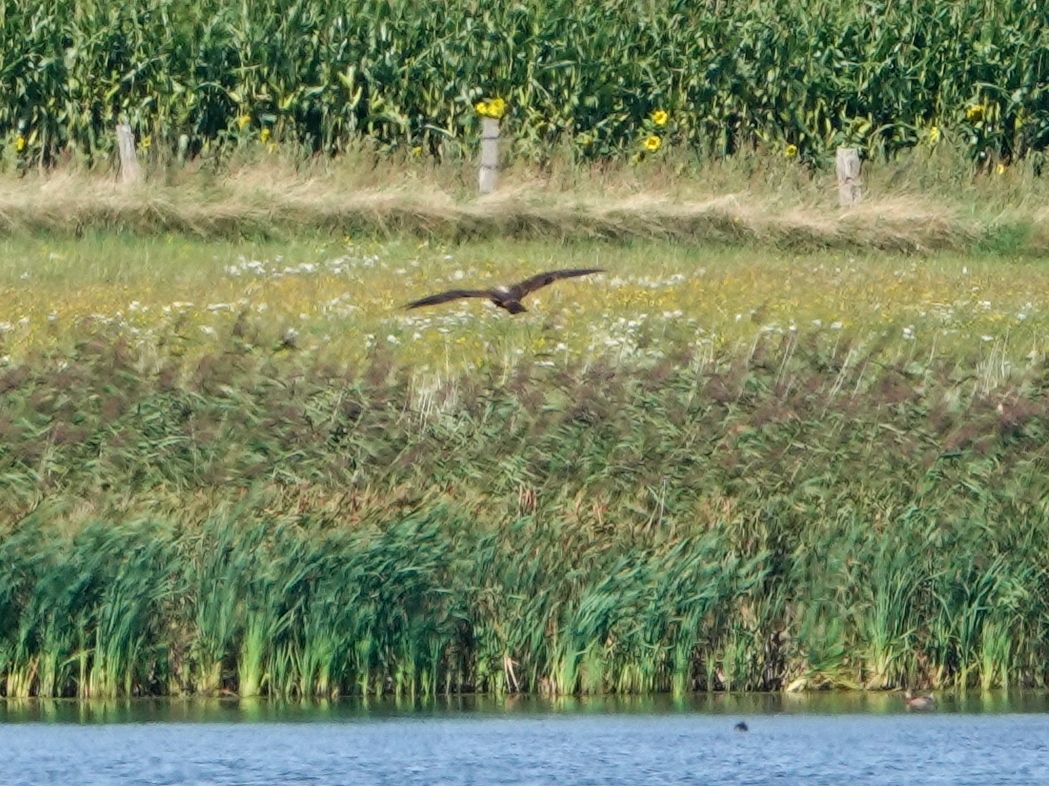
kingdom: Animalia
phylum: Chordata
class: Aves
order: Accipitriformes
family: Accipitridae
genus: Circus
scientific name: Circus aeruginosus
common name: Western marsh harrier
